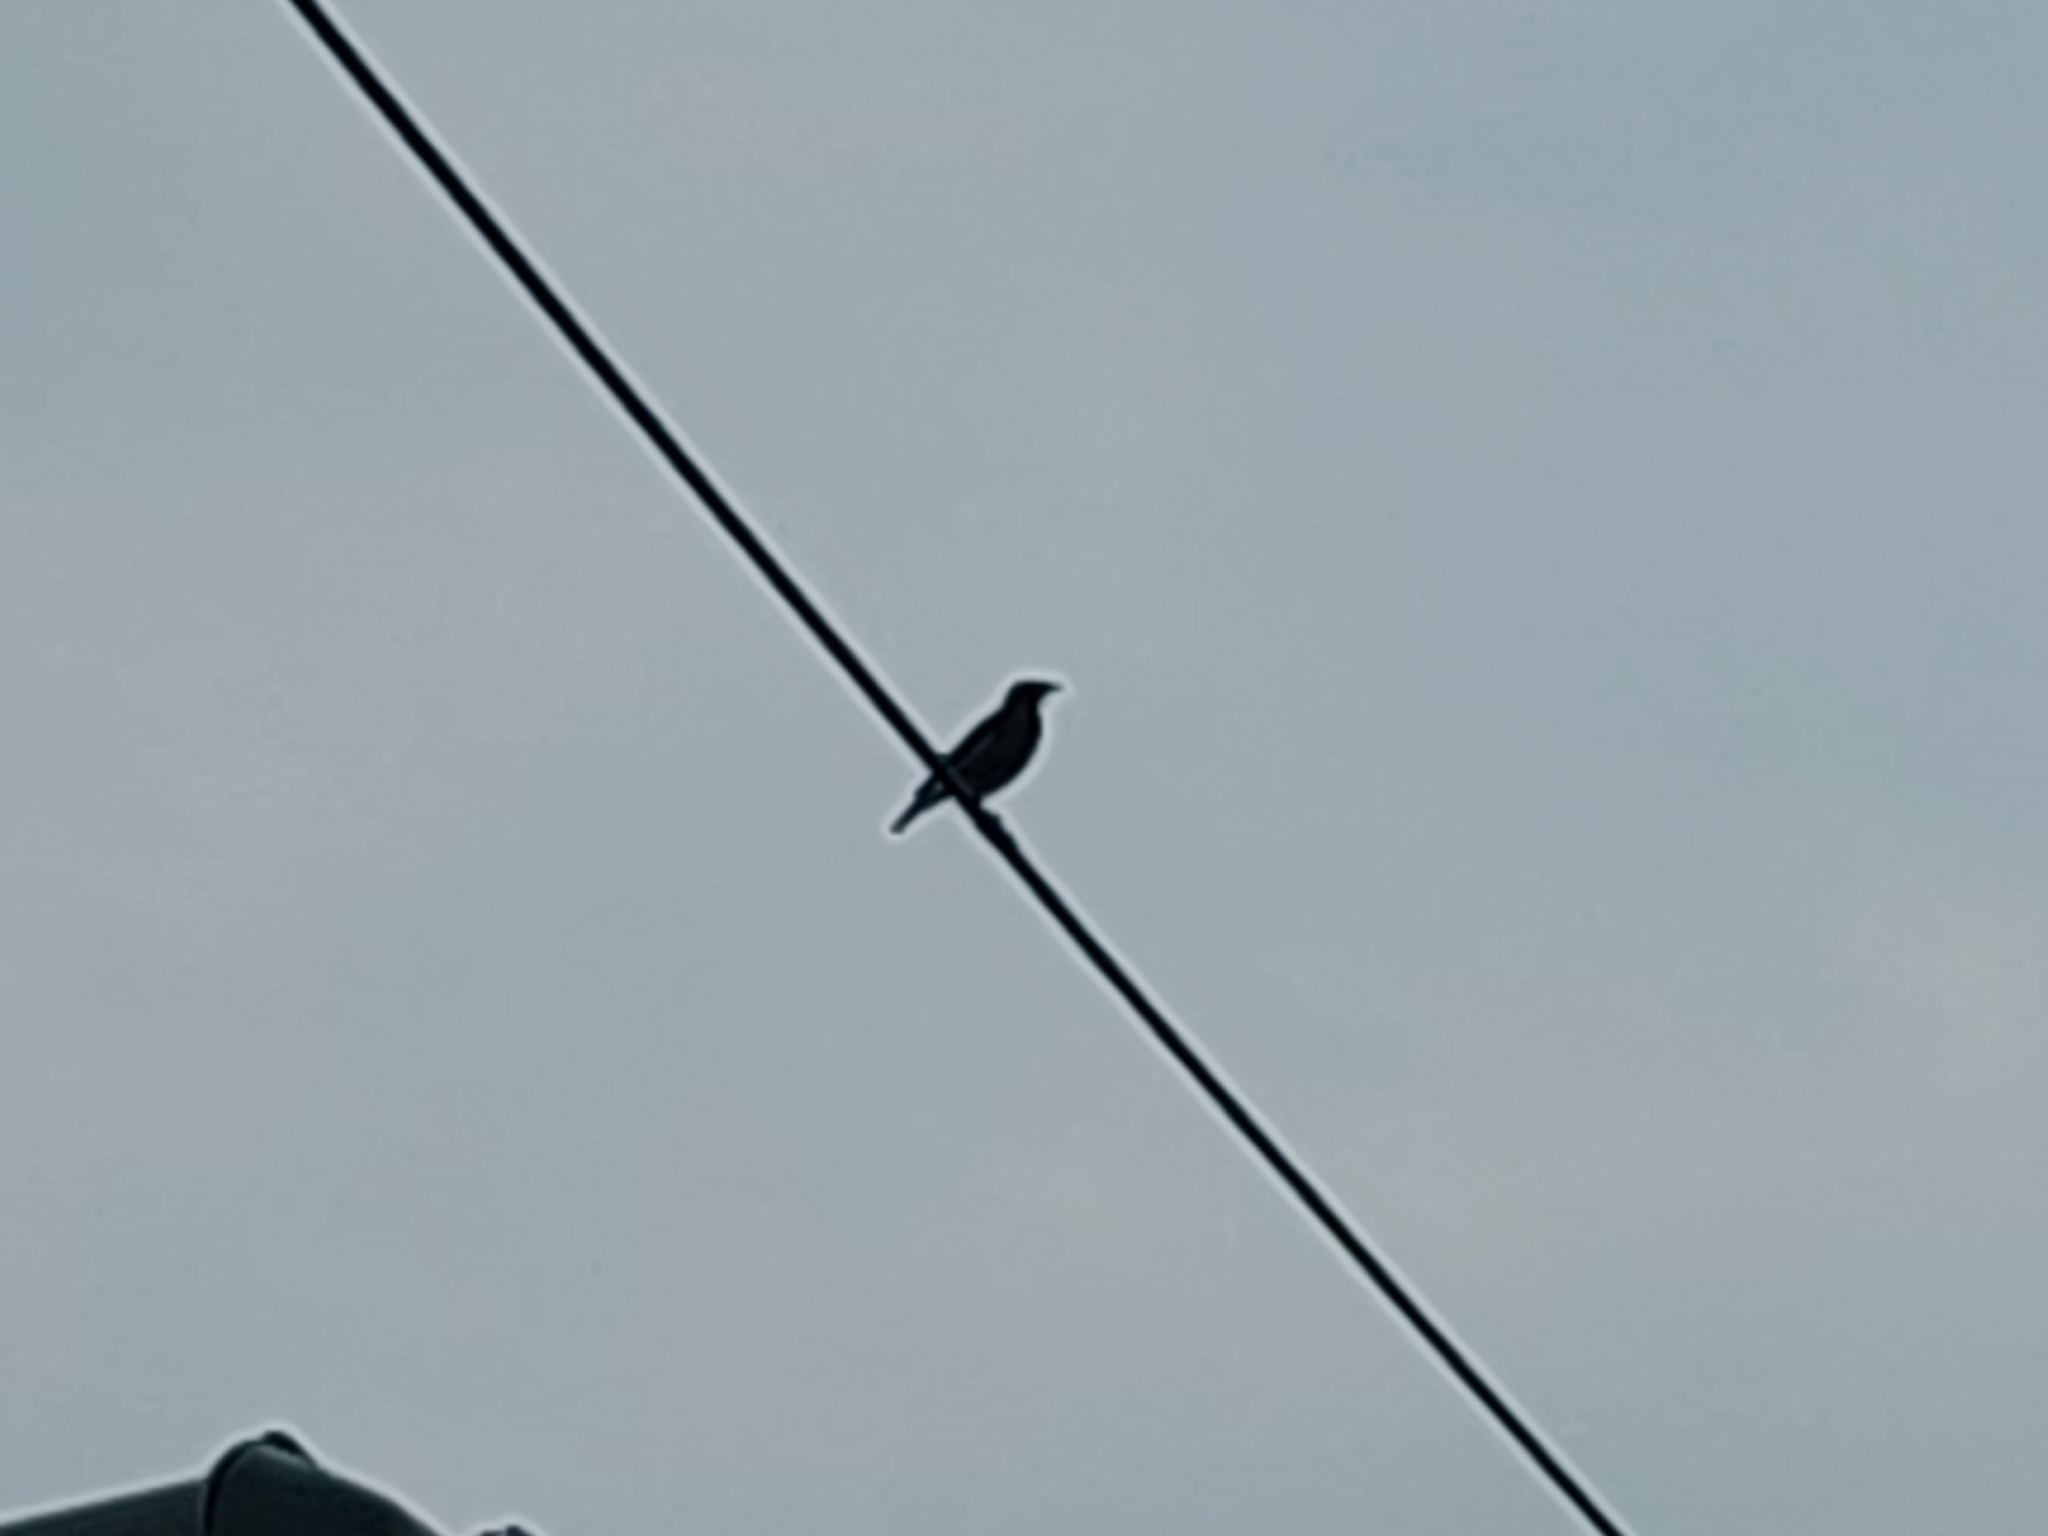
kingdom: Animalia
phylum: Chordata
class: Aves
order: Passeriformes
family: Sturnidae
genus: Acridotheres
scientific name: Acridotheres tristis
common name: Common myna
